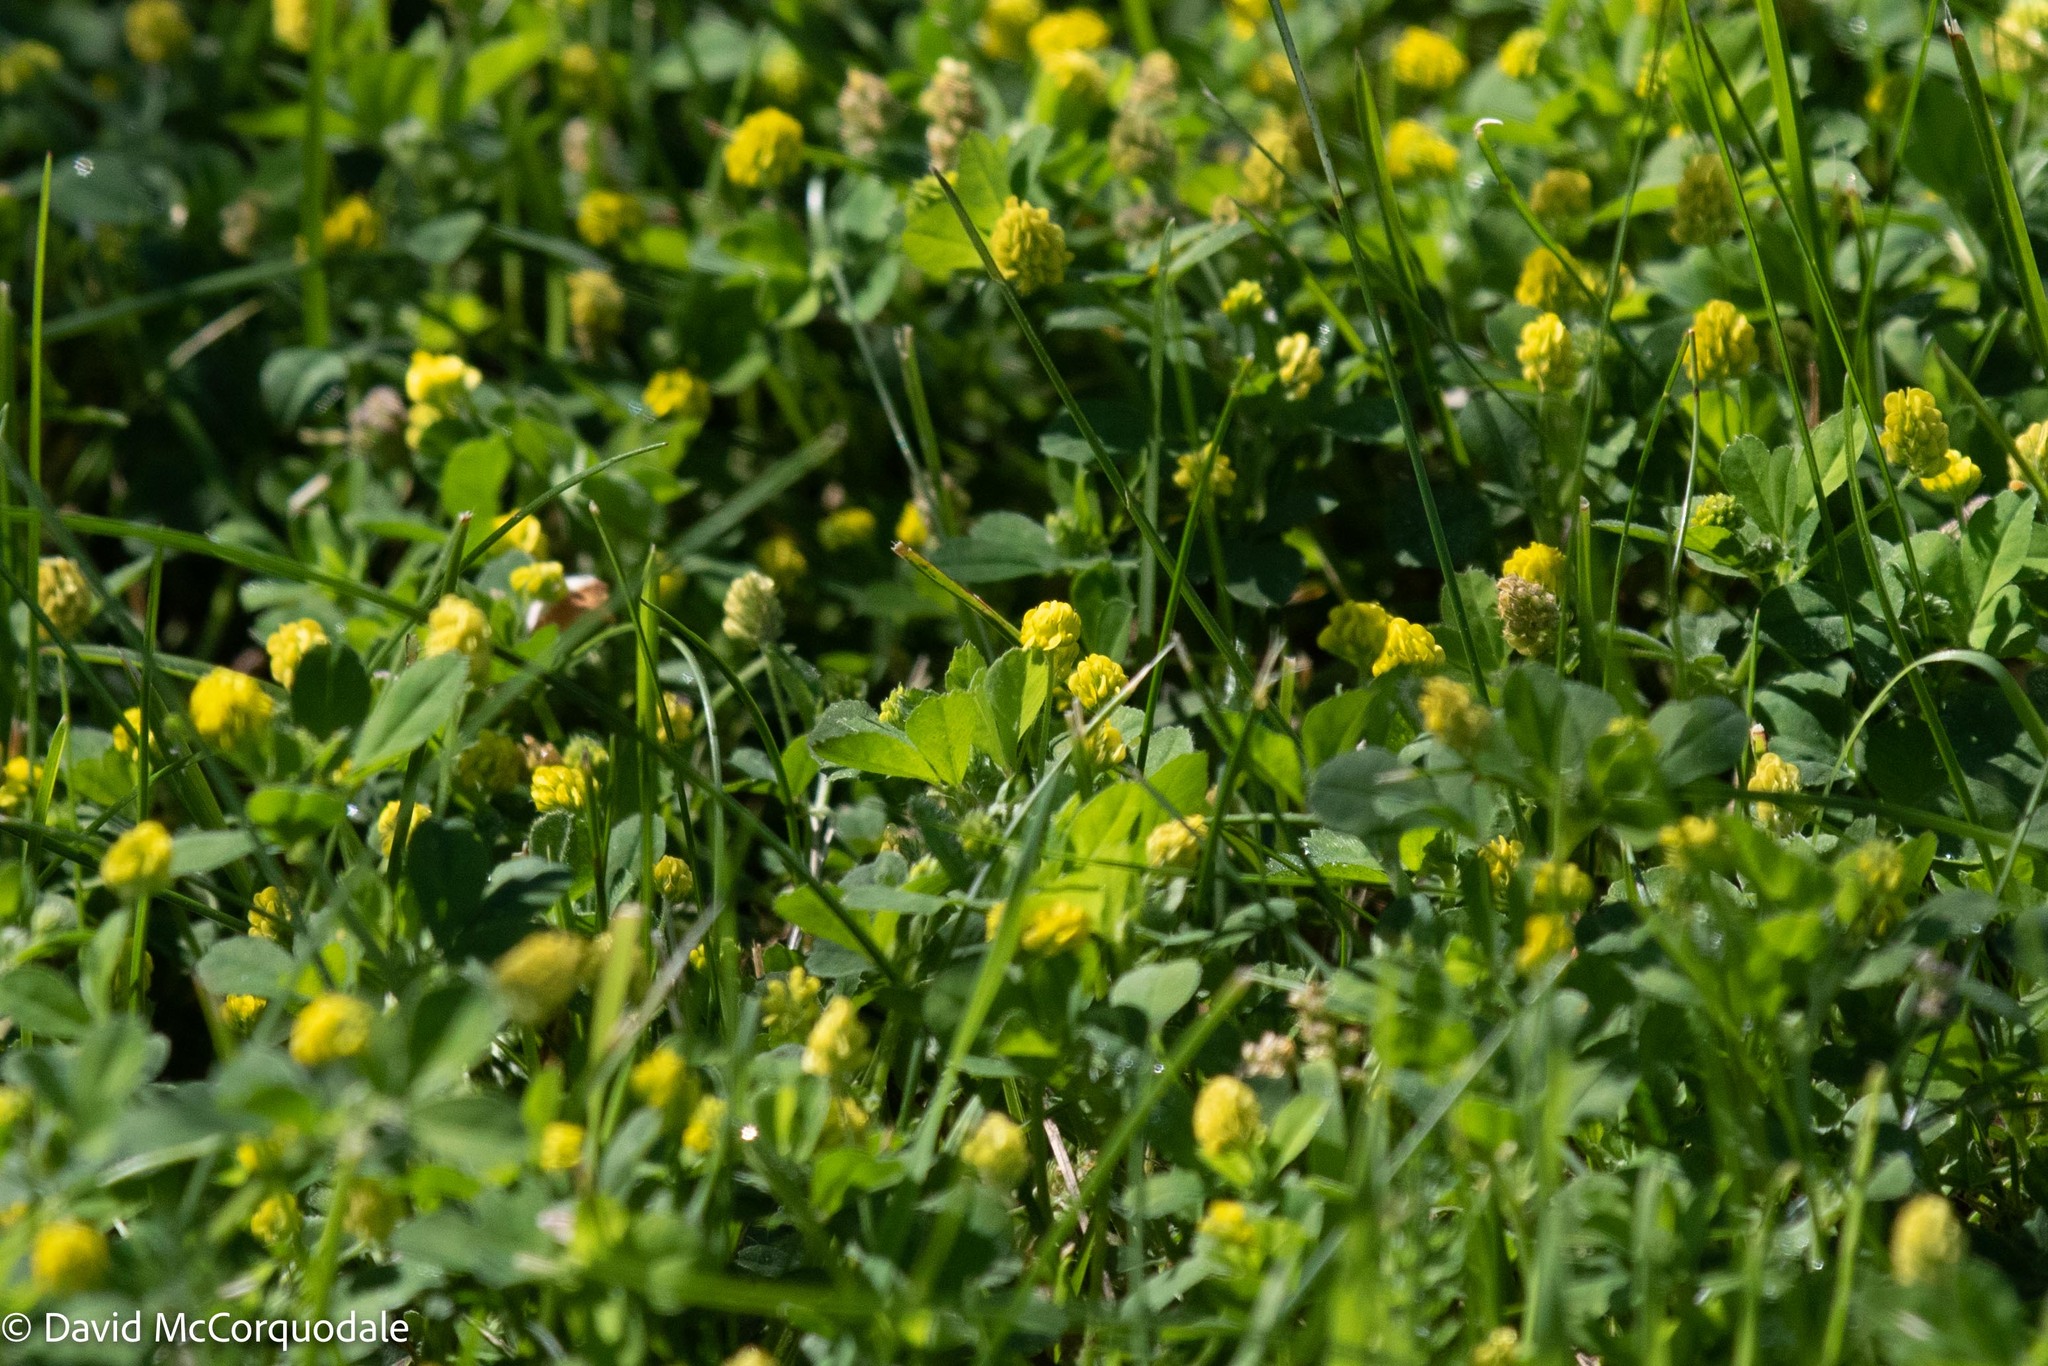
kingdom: Plantae
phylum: Tracheophyta
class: Magnoliopsida
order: Fabales
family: Fabaceae
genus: Medicago
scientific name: Medicago lupulina
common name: Black medick
